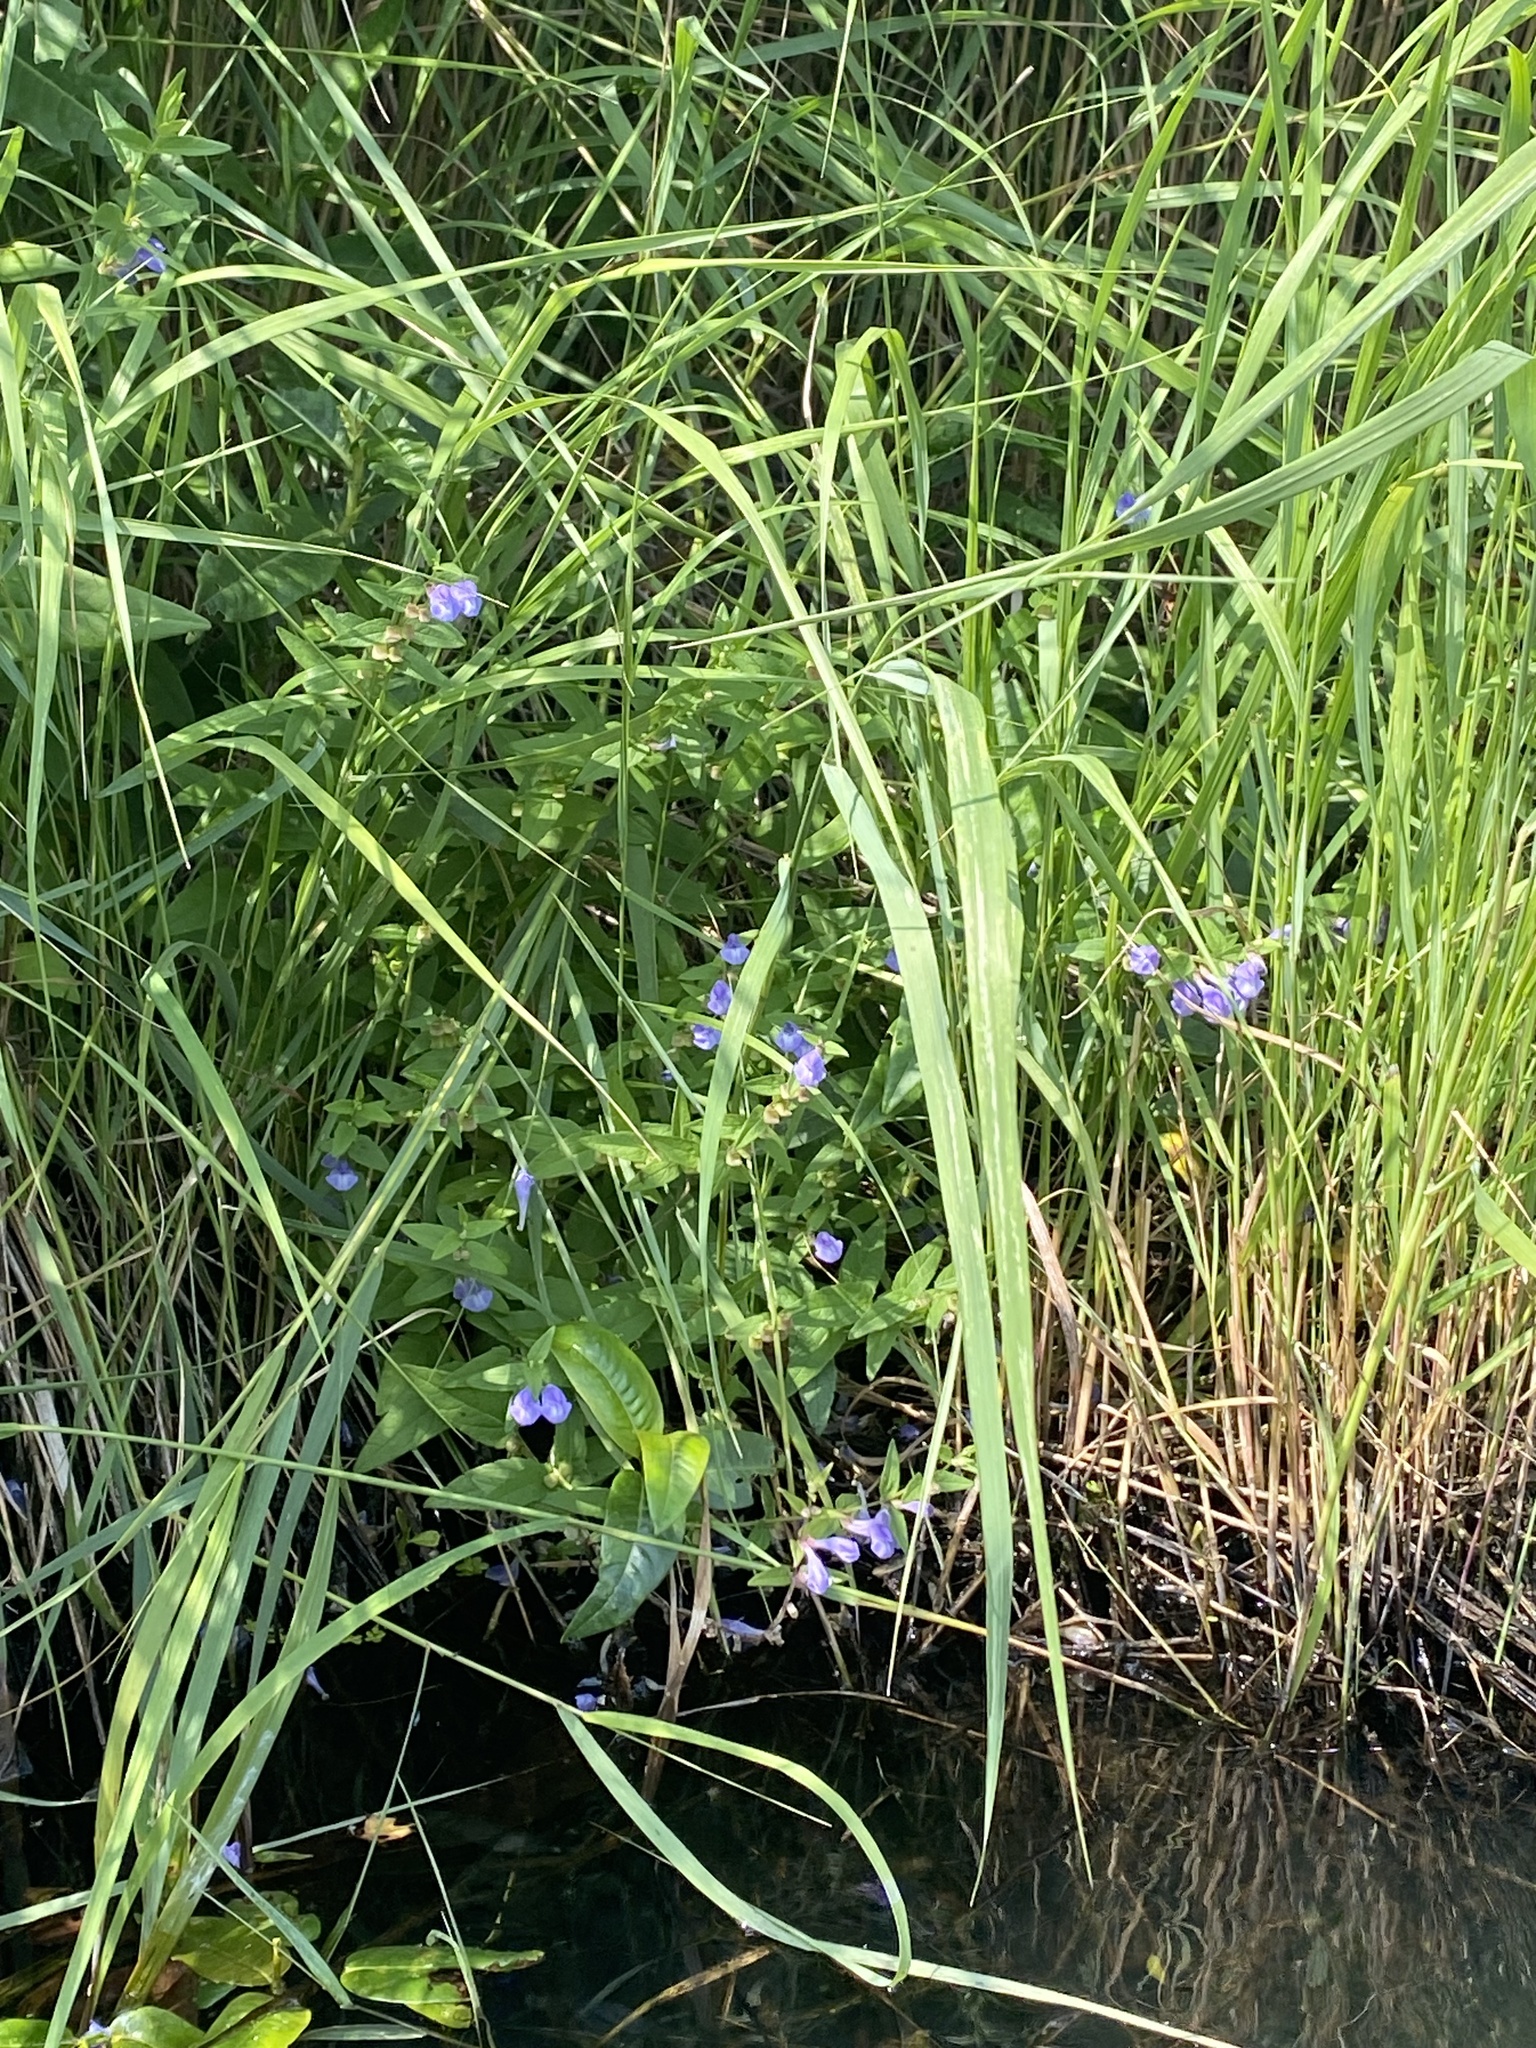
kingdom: Plantae
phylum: Tracheophyta
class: Magnoliopsida
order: Lamiales
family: Lamiaceae
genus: Scutellaria
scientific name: Scutellaria galericulata
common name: Skullcap
